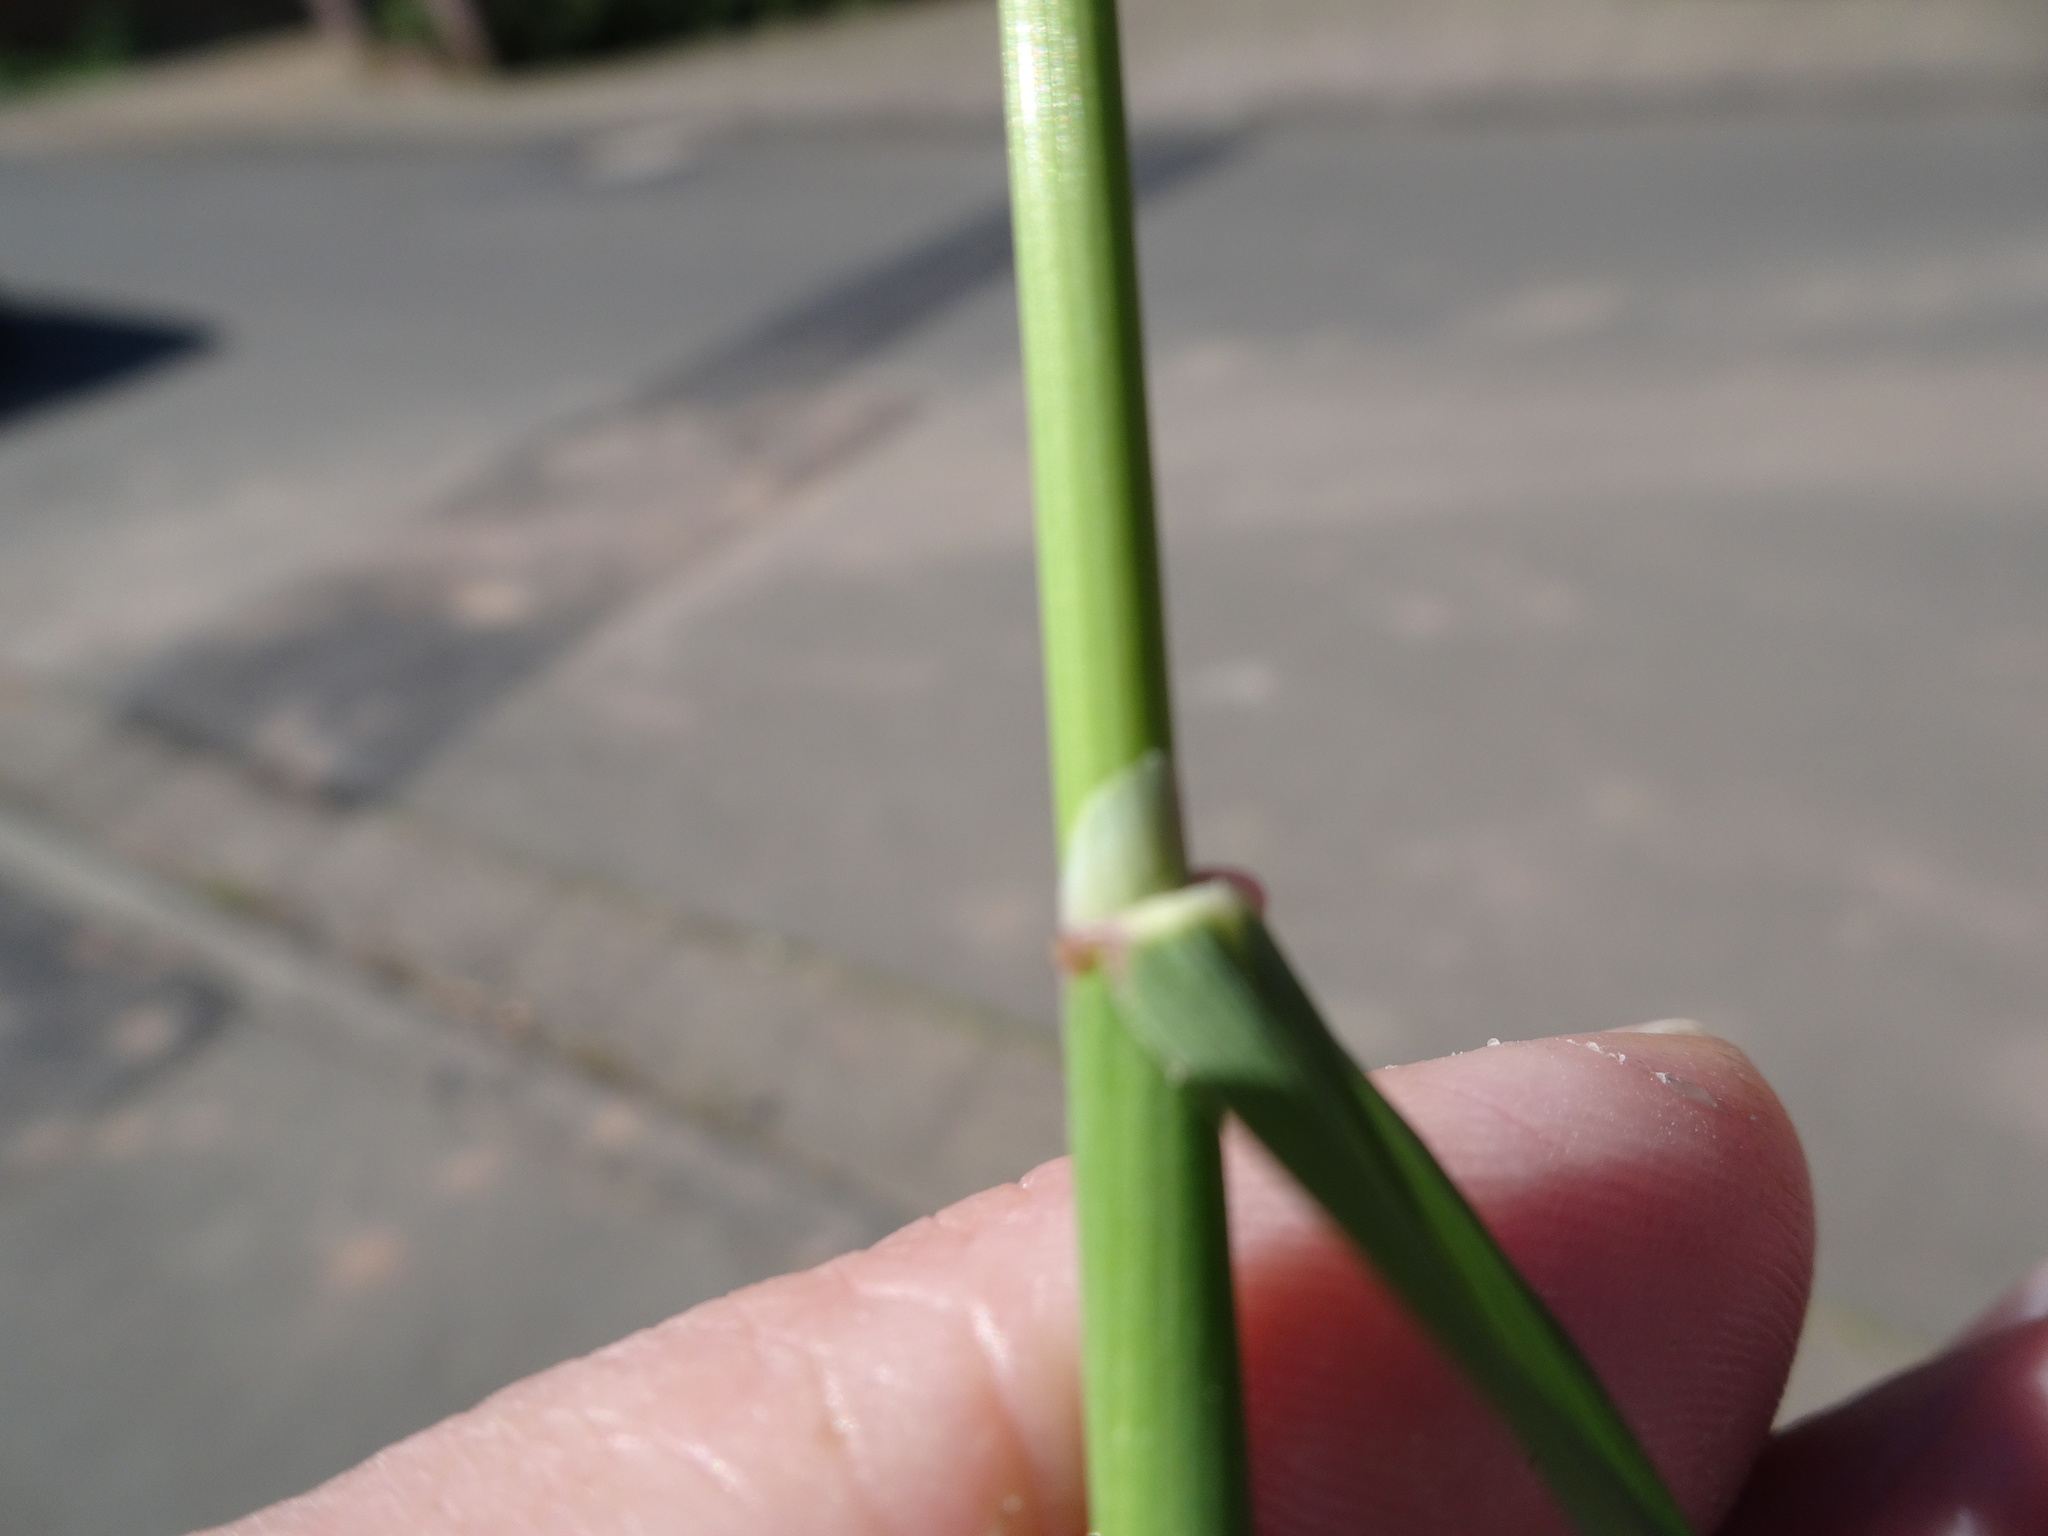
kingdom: Plantae
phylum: Tracheophyta
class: Liliopsida
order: Poales
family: Poaceae
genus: Arrhenatherum
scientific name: Arrhenatherum elatius
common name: Tall oatgrass
